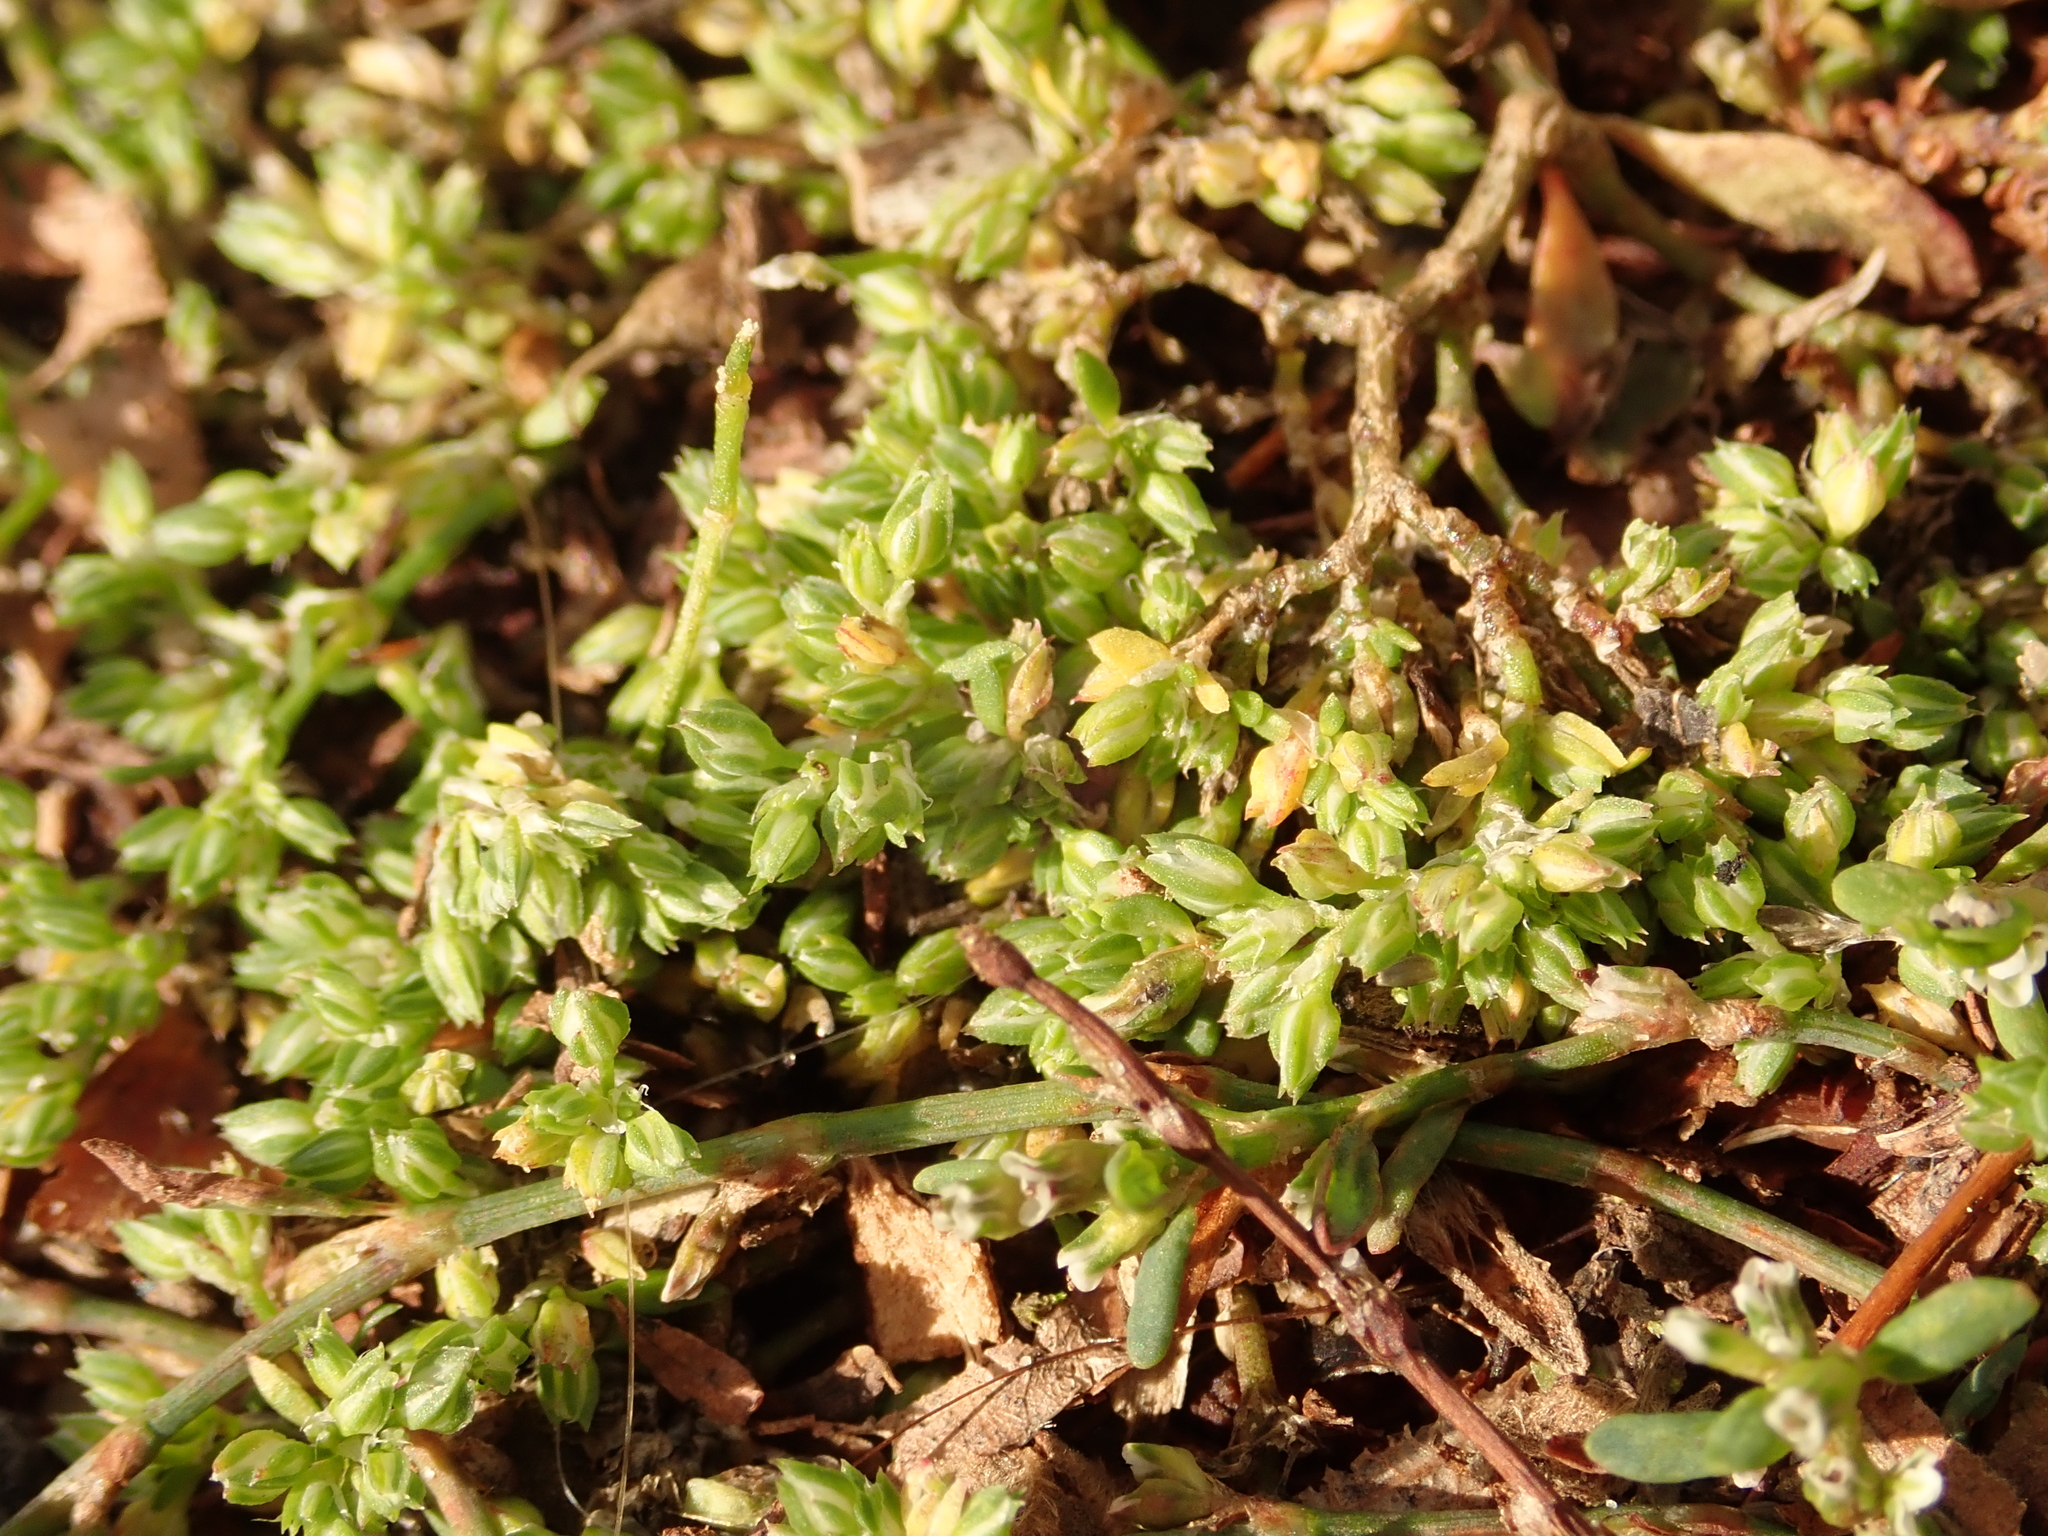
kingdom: Plantae
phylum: Tracheophyta
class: Magnoliopsida
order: Caryophyllales
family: Caryophyllaceae
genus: Polycarpon
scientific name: Polycarpon tetraphyllum
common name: Four-leaved all-seed
